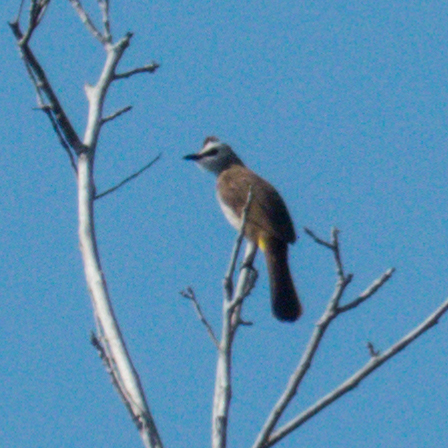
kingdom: Animalia
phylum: Chordata
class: Aves
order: Passeriformes
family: Pycnonotidae
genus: Pycnonotus
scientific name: Pycnonotus goiavier
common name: Yellow-vented bulbul
